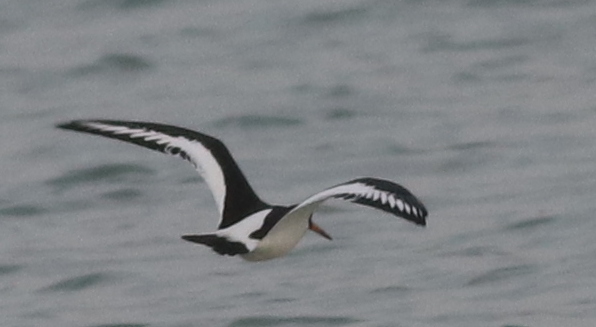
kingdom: Animalia
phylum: Chordata
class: Aves
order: Charadriiformes
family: Haematopodidae
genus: Haematopus
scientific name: Haematopus ostralegus
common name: Eurasian oystercatcher
